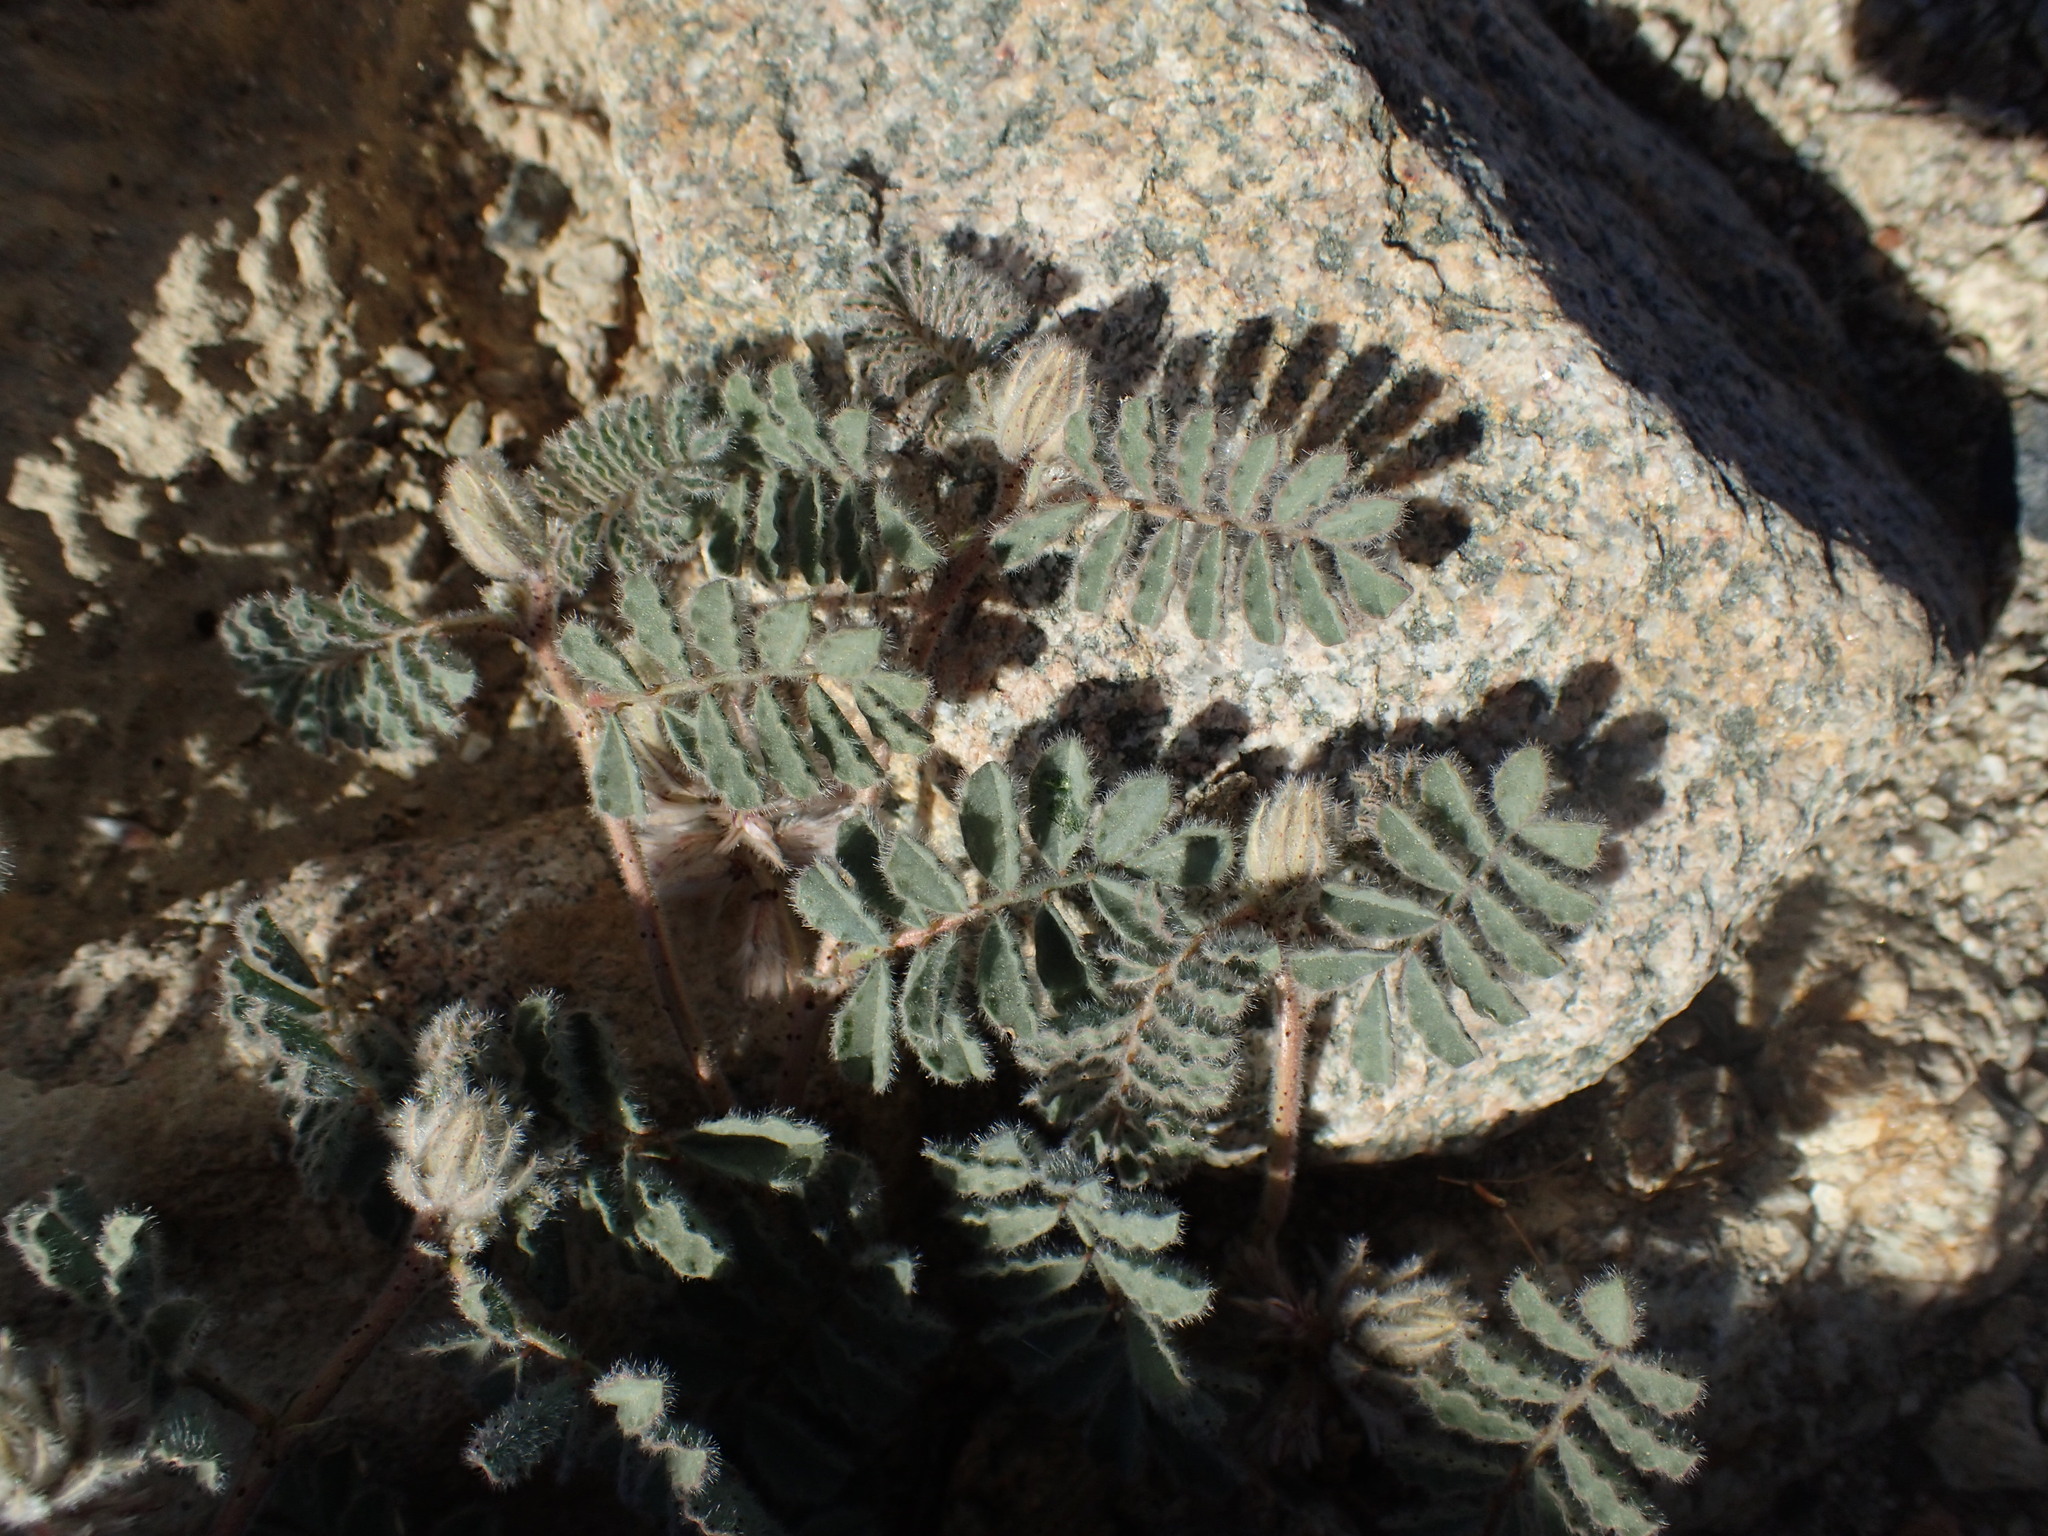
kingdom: Plantae
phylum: Tracheophyta
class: Magnoliopsida
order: Fabales
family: Fabaceae
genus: Dalea
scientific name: Dalea mollissima
